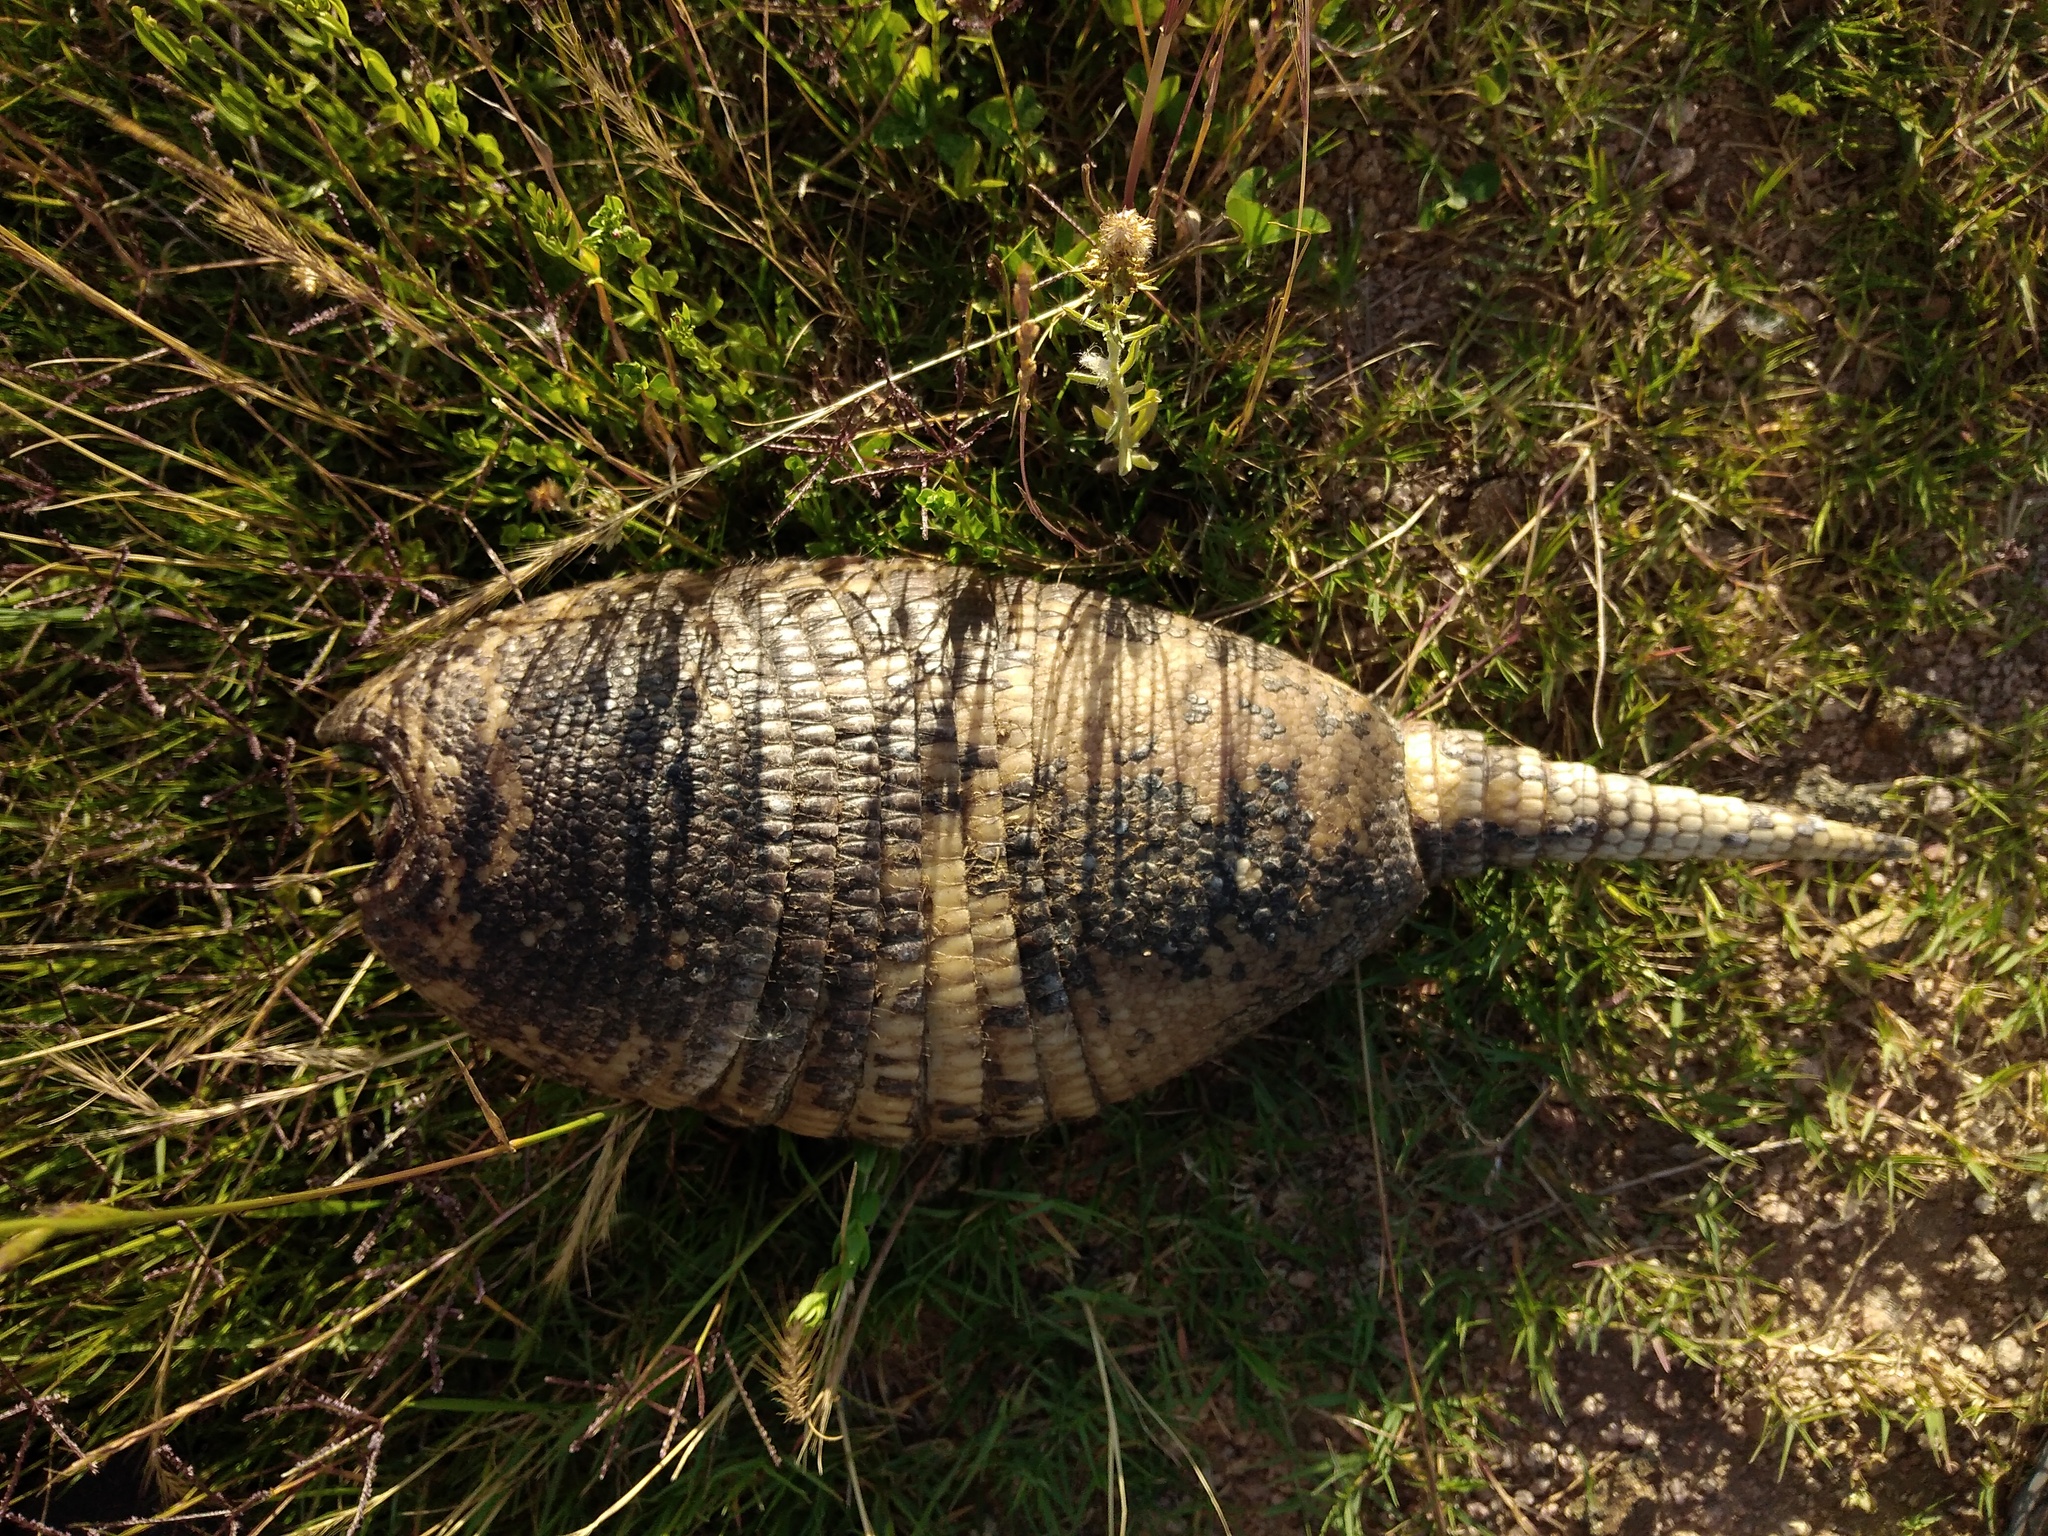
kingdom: Animalia
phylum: Chordata
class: Mammalia
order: Cingulata
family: Dasypodidae
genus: Dasypus
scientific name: Dasypus septemcinctus
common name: Seven-banded armadillo
